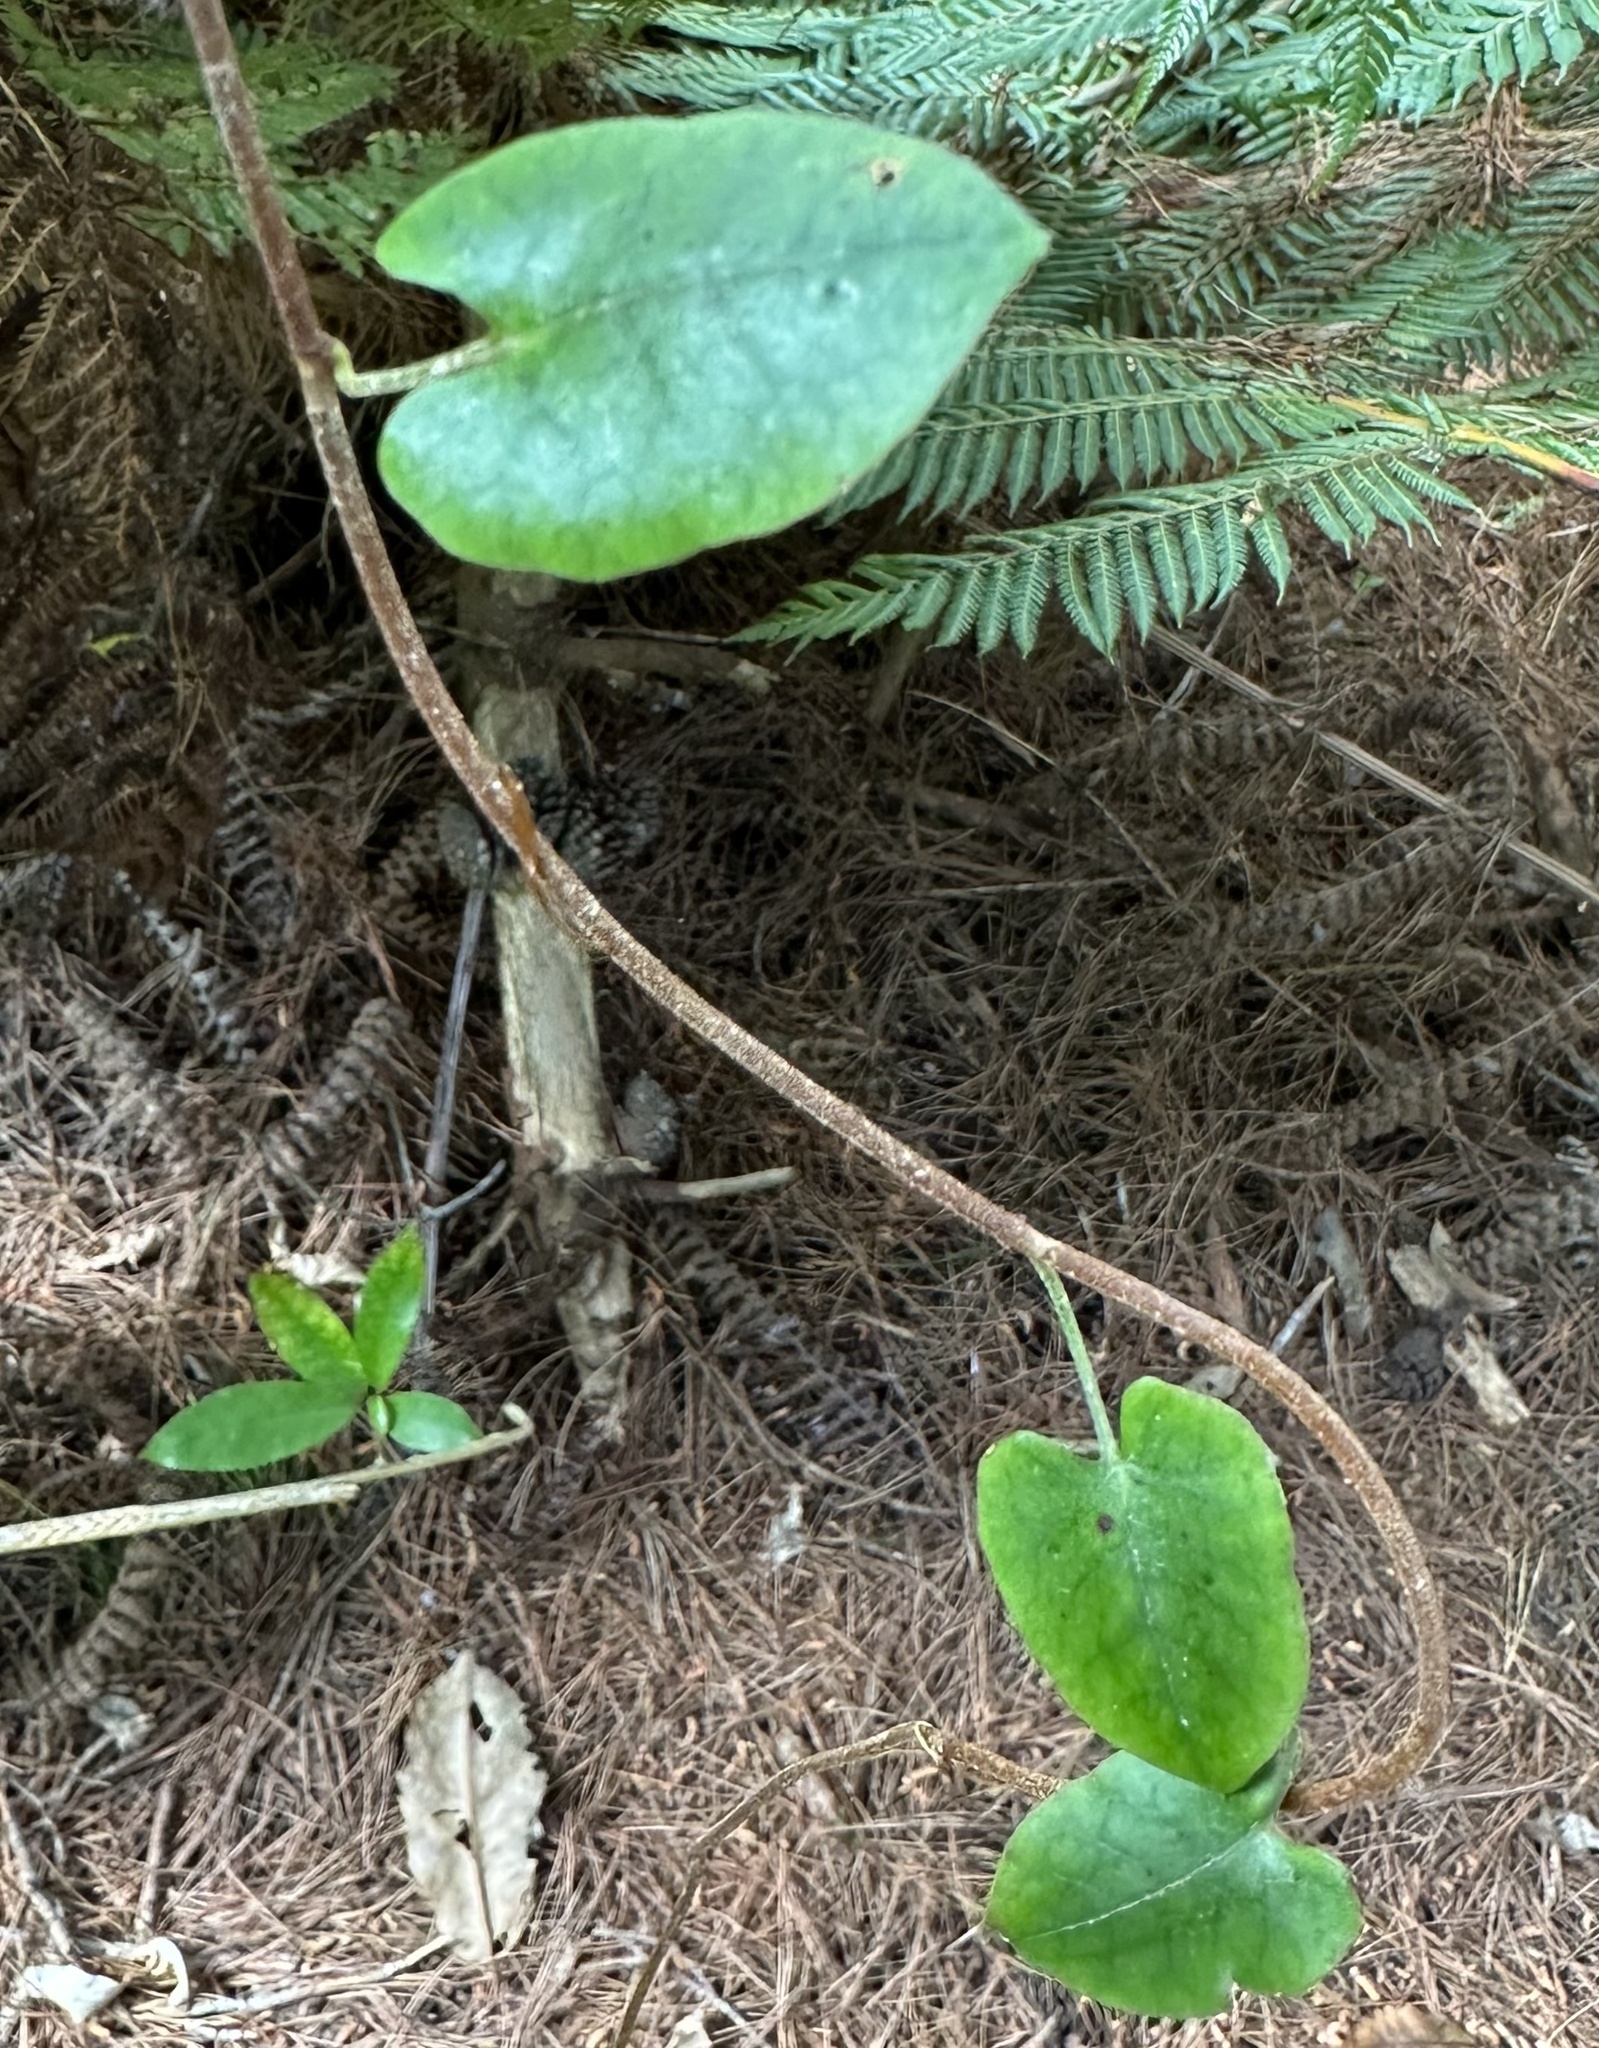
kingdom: Plantae
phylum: Tracheophyta
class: Magnoliopsida
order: Caryophyllales
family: Polygonaceae
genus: Muehlenbeckia
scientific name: Muehlenbeckia australis
